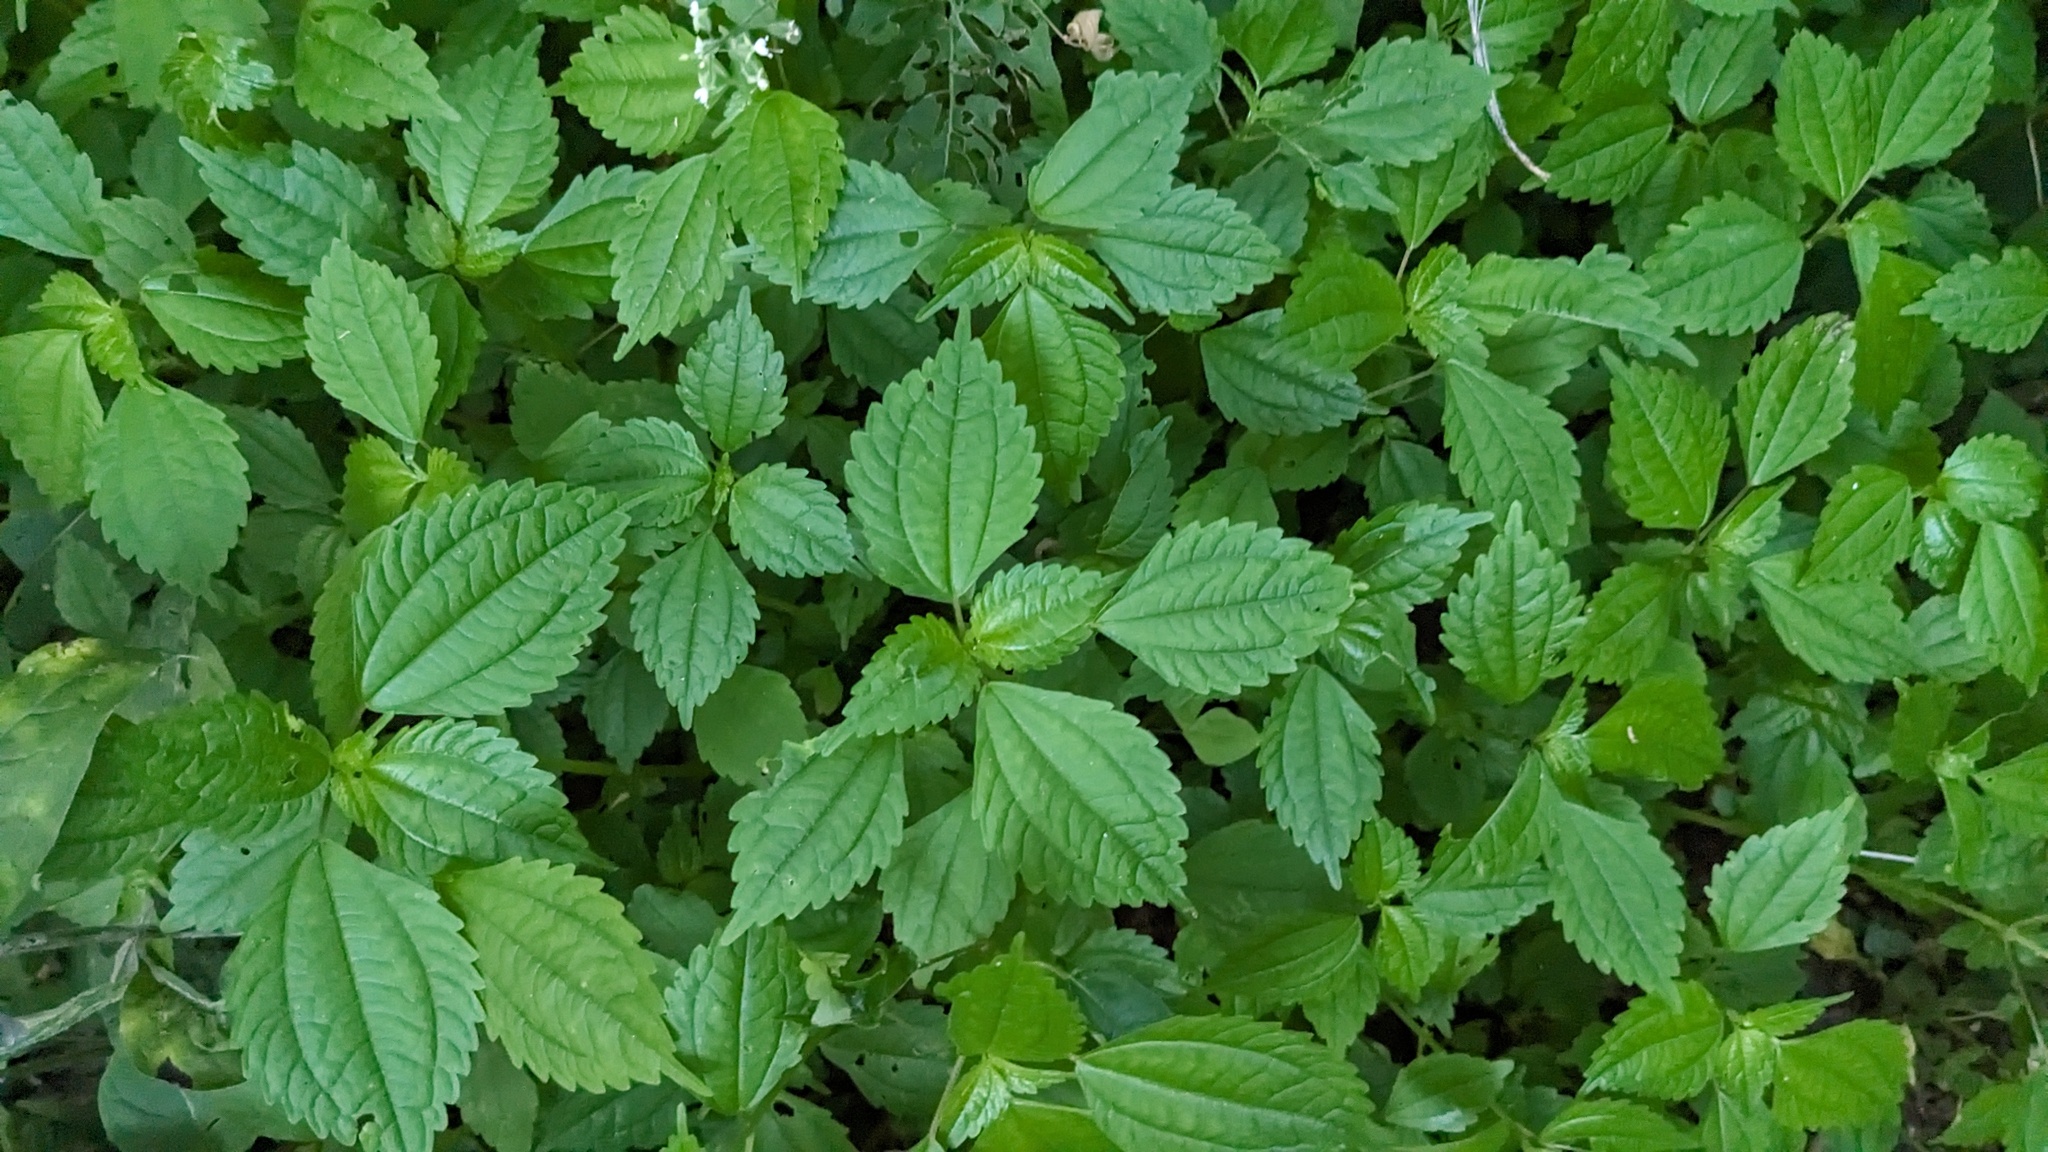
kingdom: Plantae
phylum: Tracheophyta
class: Magnoliopsida
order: Rosales
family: Urticaceae
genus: Pilea
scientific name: Pilea pumila
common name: Clearweed
